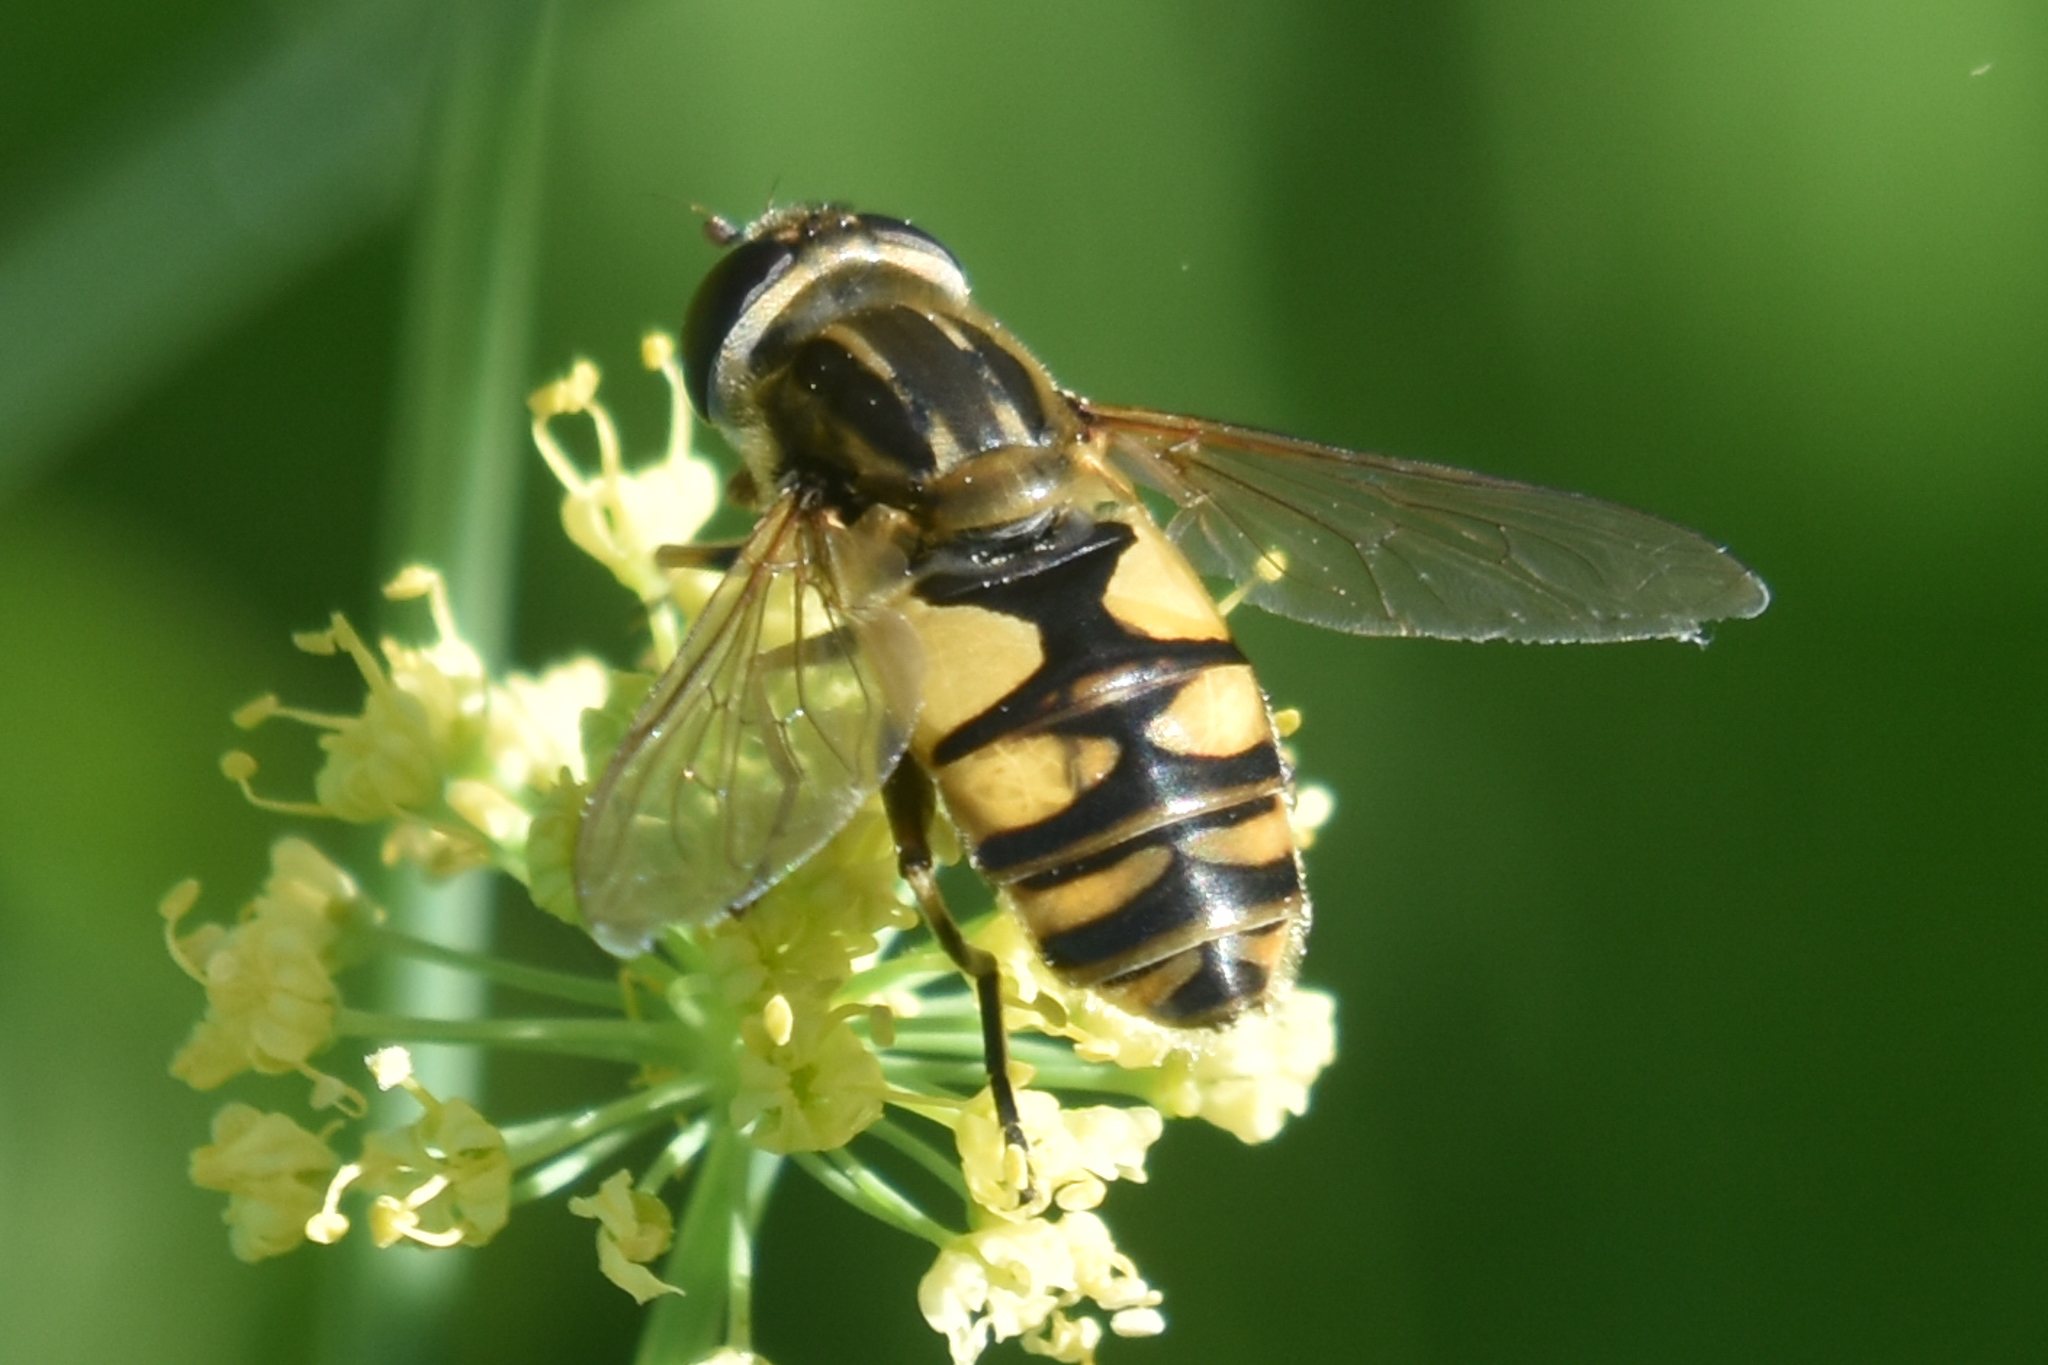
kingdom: Animalia
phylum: Arthropoda
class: Insecta
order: Diptera
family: Syrphidae
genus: Helophilus
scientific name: Helophilus hybridus
